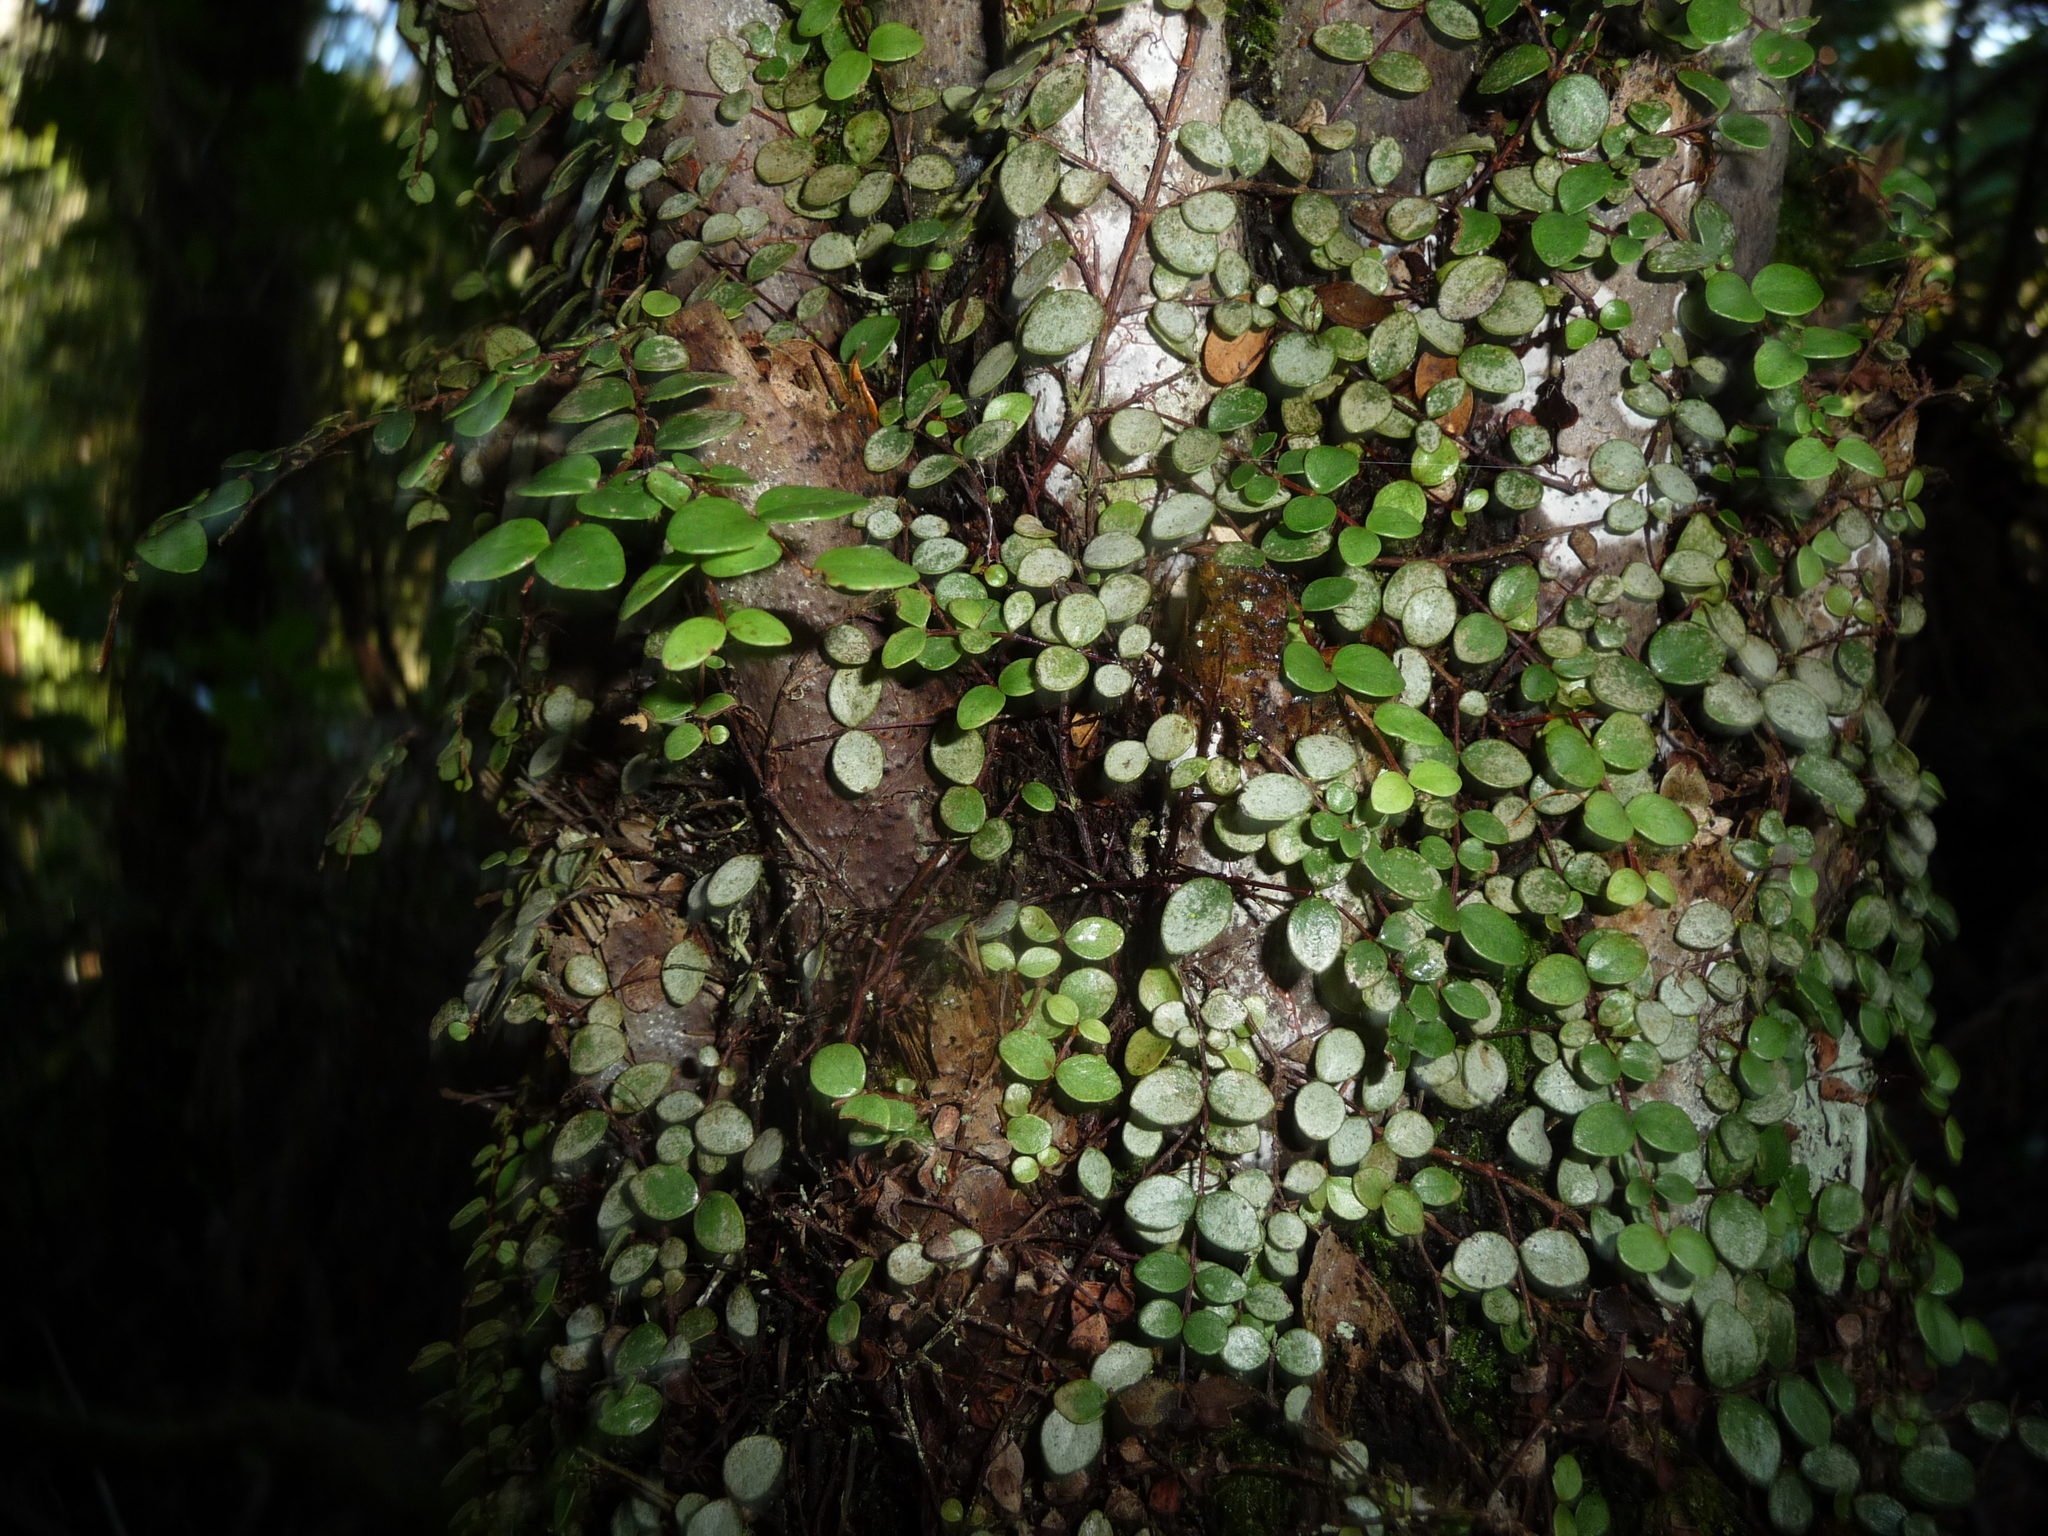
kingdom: Plantae
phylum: Tracheophyta
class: Magnoliopsida
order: Myrtales
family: Myrtaceae
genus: Metrosideros
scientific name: Metrosideros fulgens
